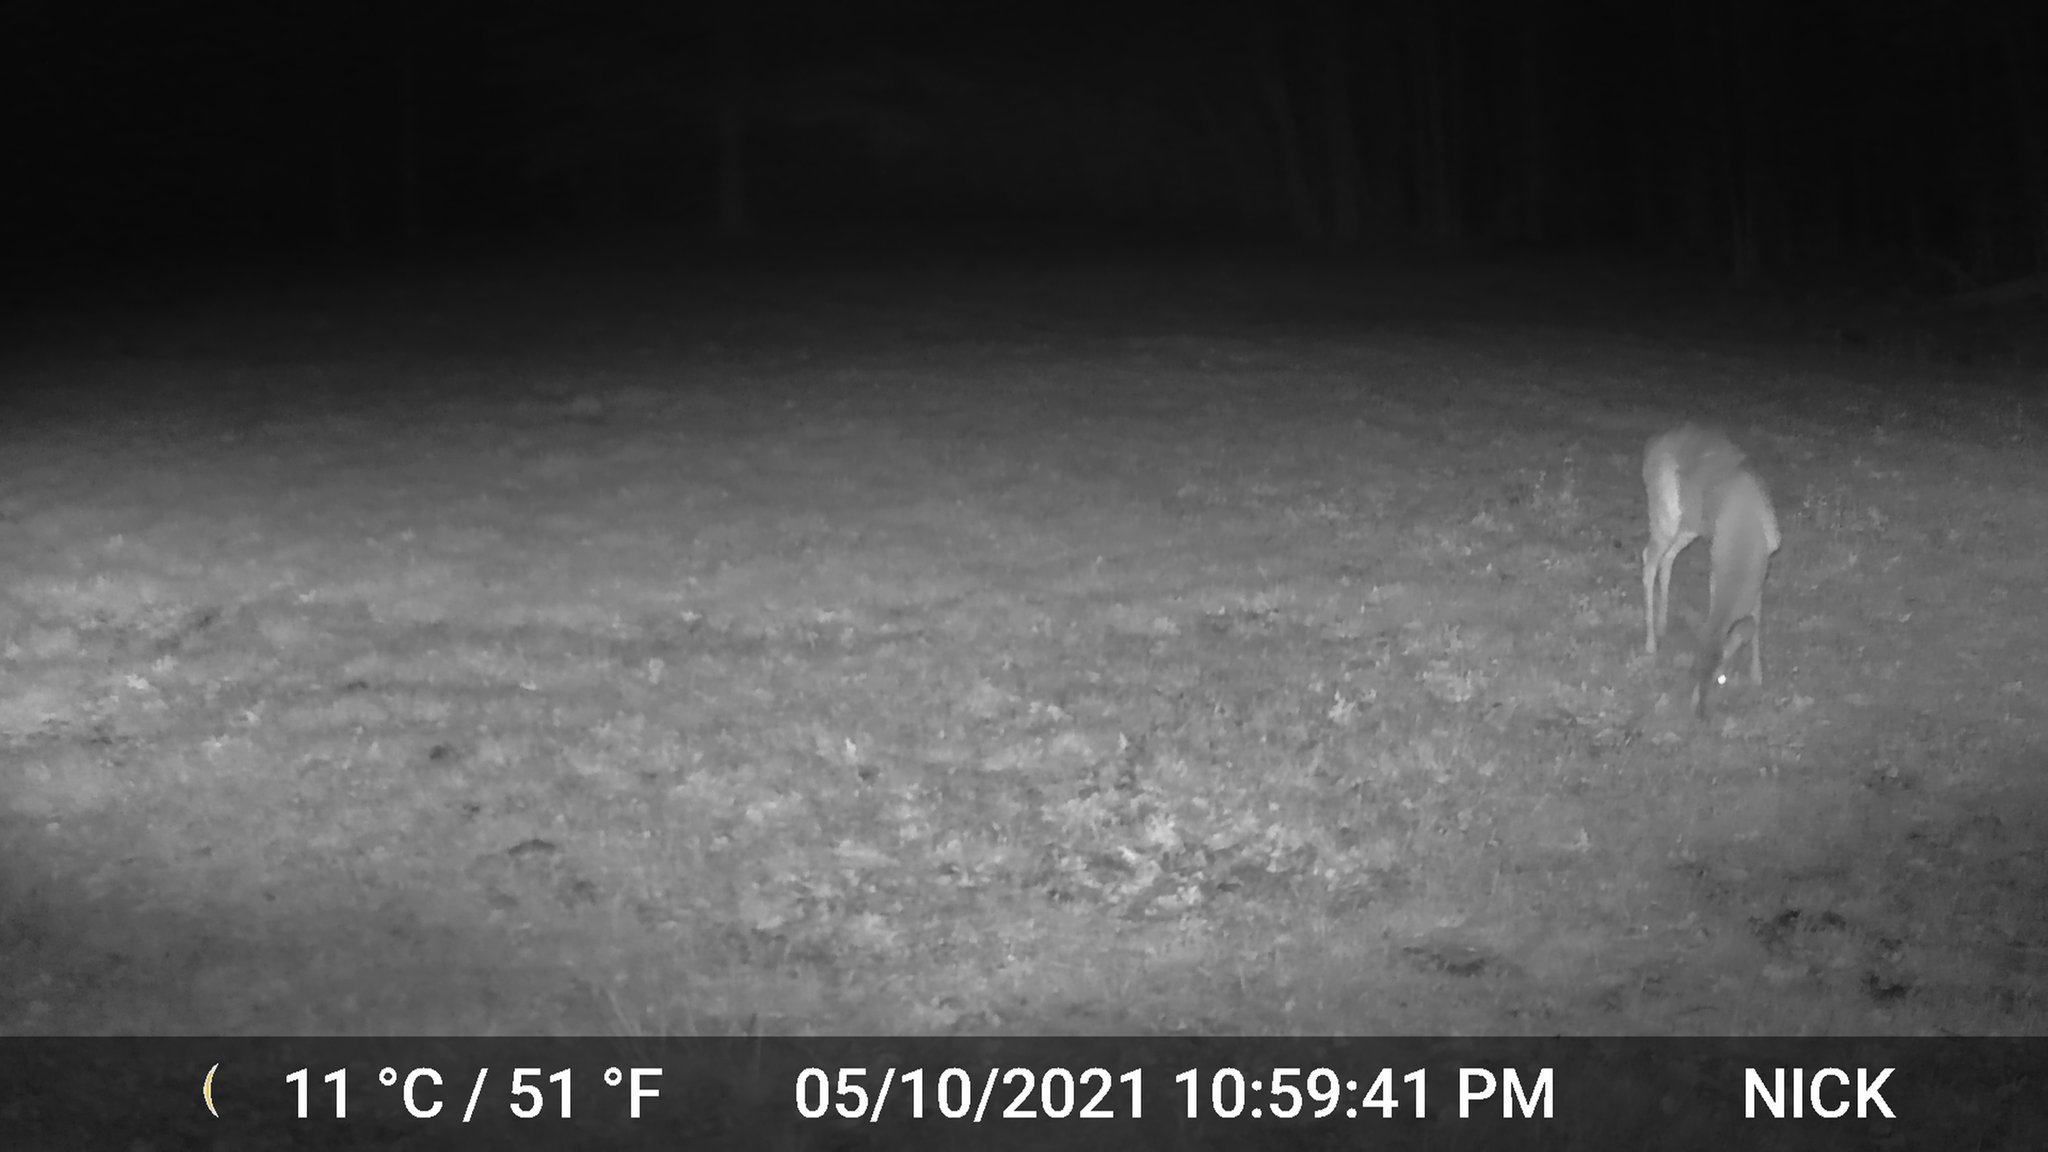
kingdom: Animalia
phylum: Chordata
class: Mammalia
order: Artiodactyla
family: Cervidae
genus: Odocoileus
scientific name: Odocoileus virginianus
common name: White-tailed deer
